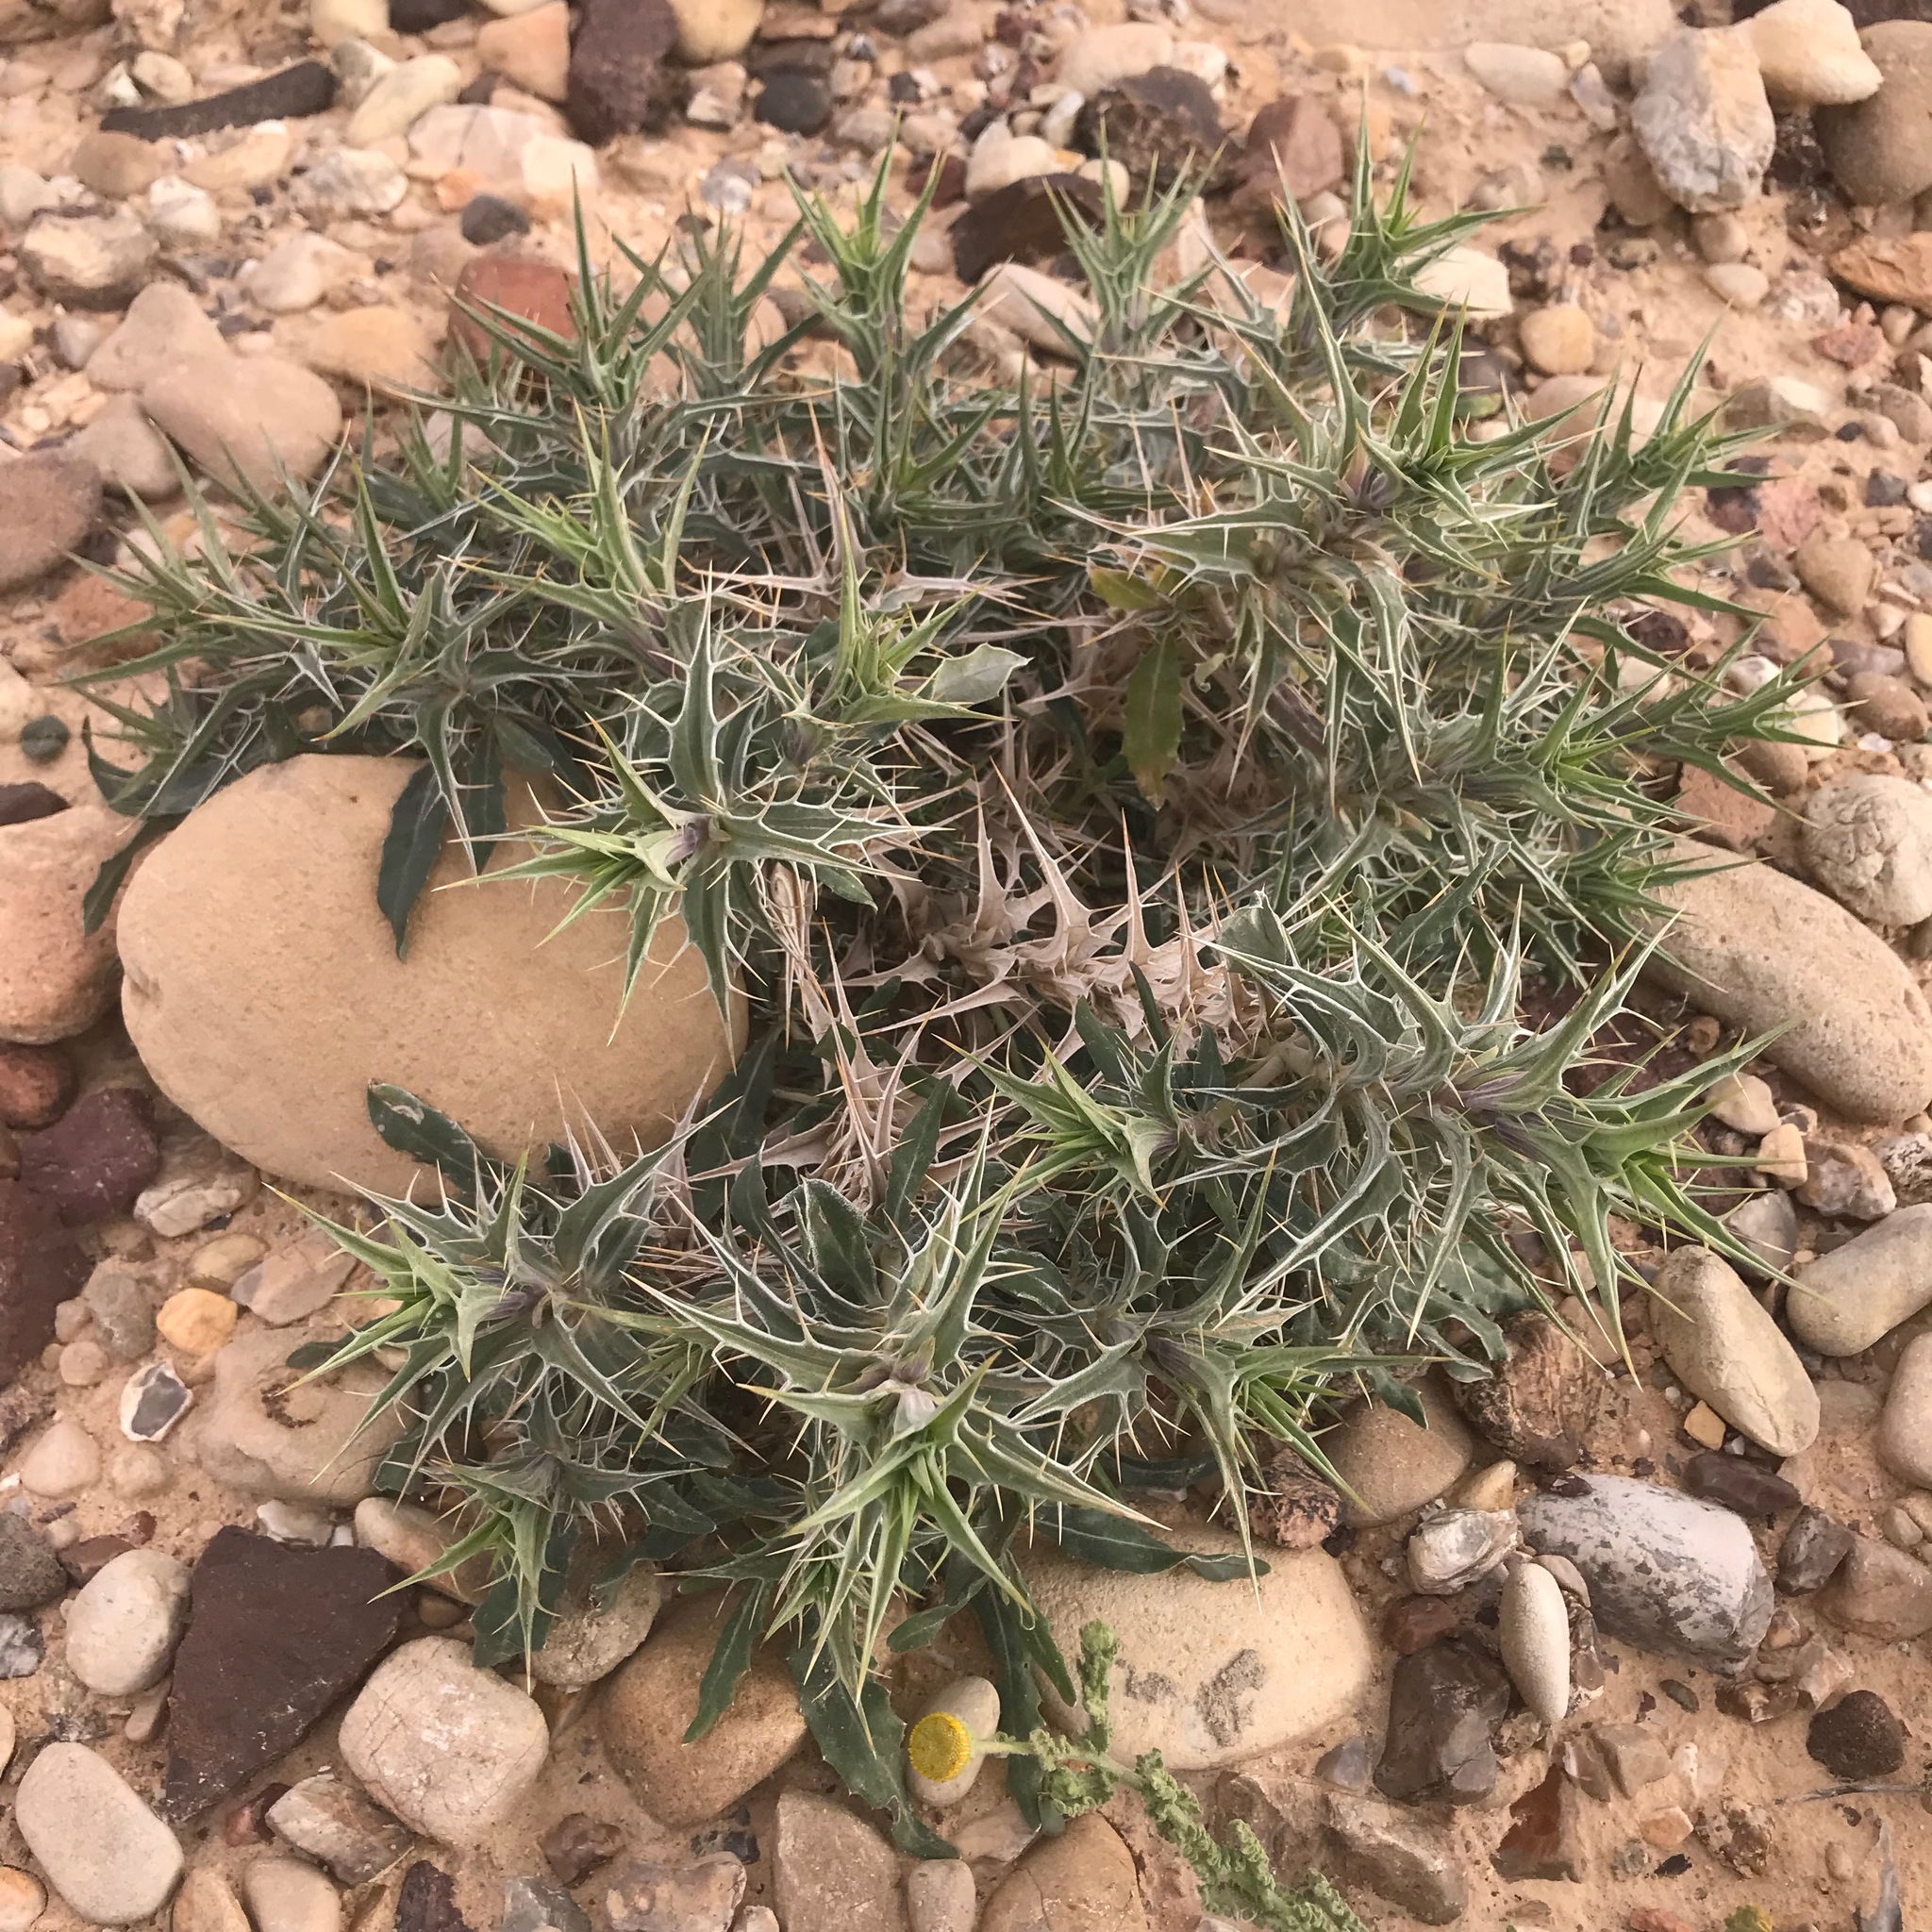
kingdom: Plantae
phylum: Tracheophyta
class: Magnoliopsida
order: Lamiales
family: Acanthaceae
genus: Blepharis
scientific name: Blepharis attenuata
